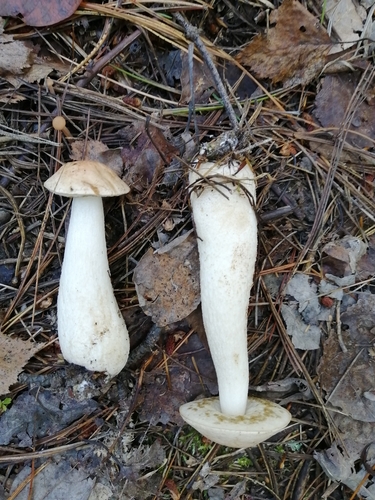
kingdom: Fungi
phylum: Basidiomycota
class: Agaricomycetes
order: Boletales
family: Boletaceae
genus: Leccinum
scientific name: Leccinum scabrum
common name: Blushing bolete
